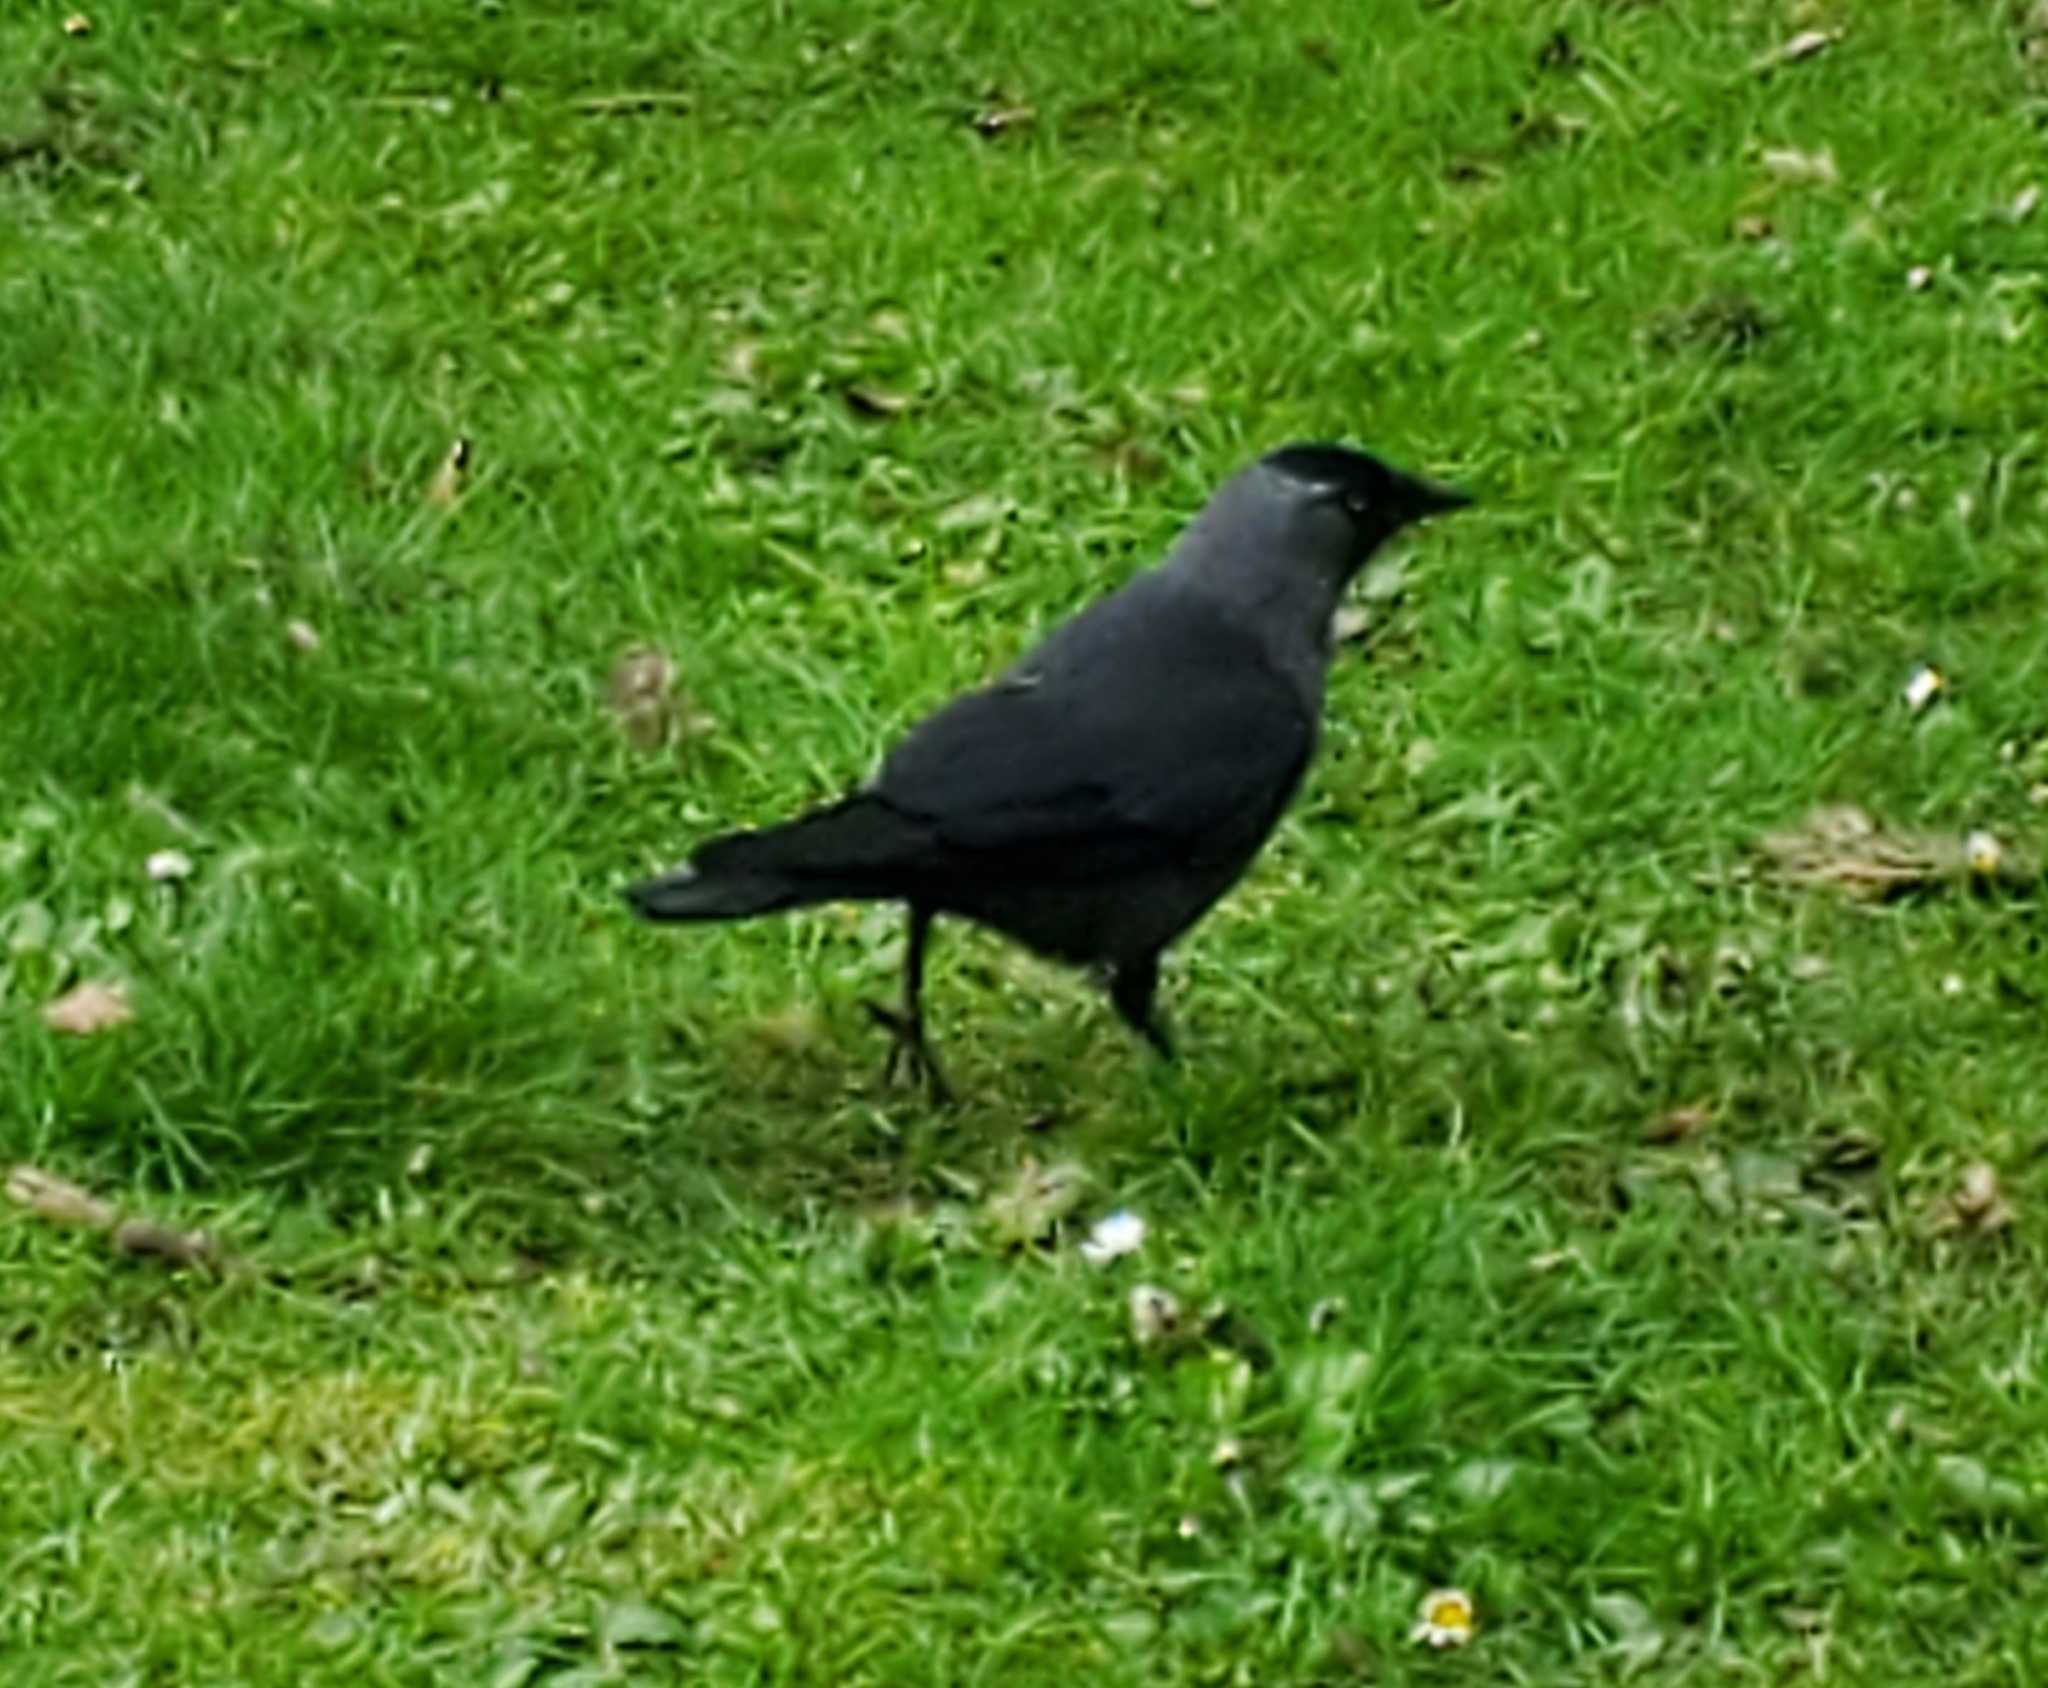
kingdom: Animalia
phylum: Chordata
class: Aves
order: Passeriformes
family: Corvidae
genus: Coloeus
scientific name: Coloeus monedula
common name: Western jackdaw
